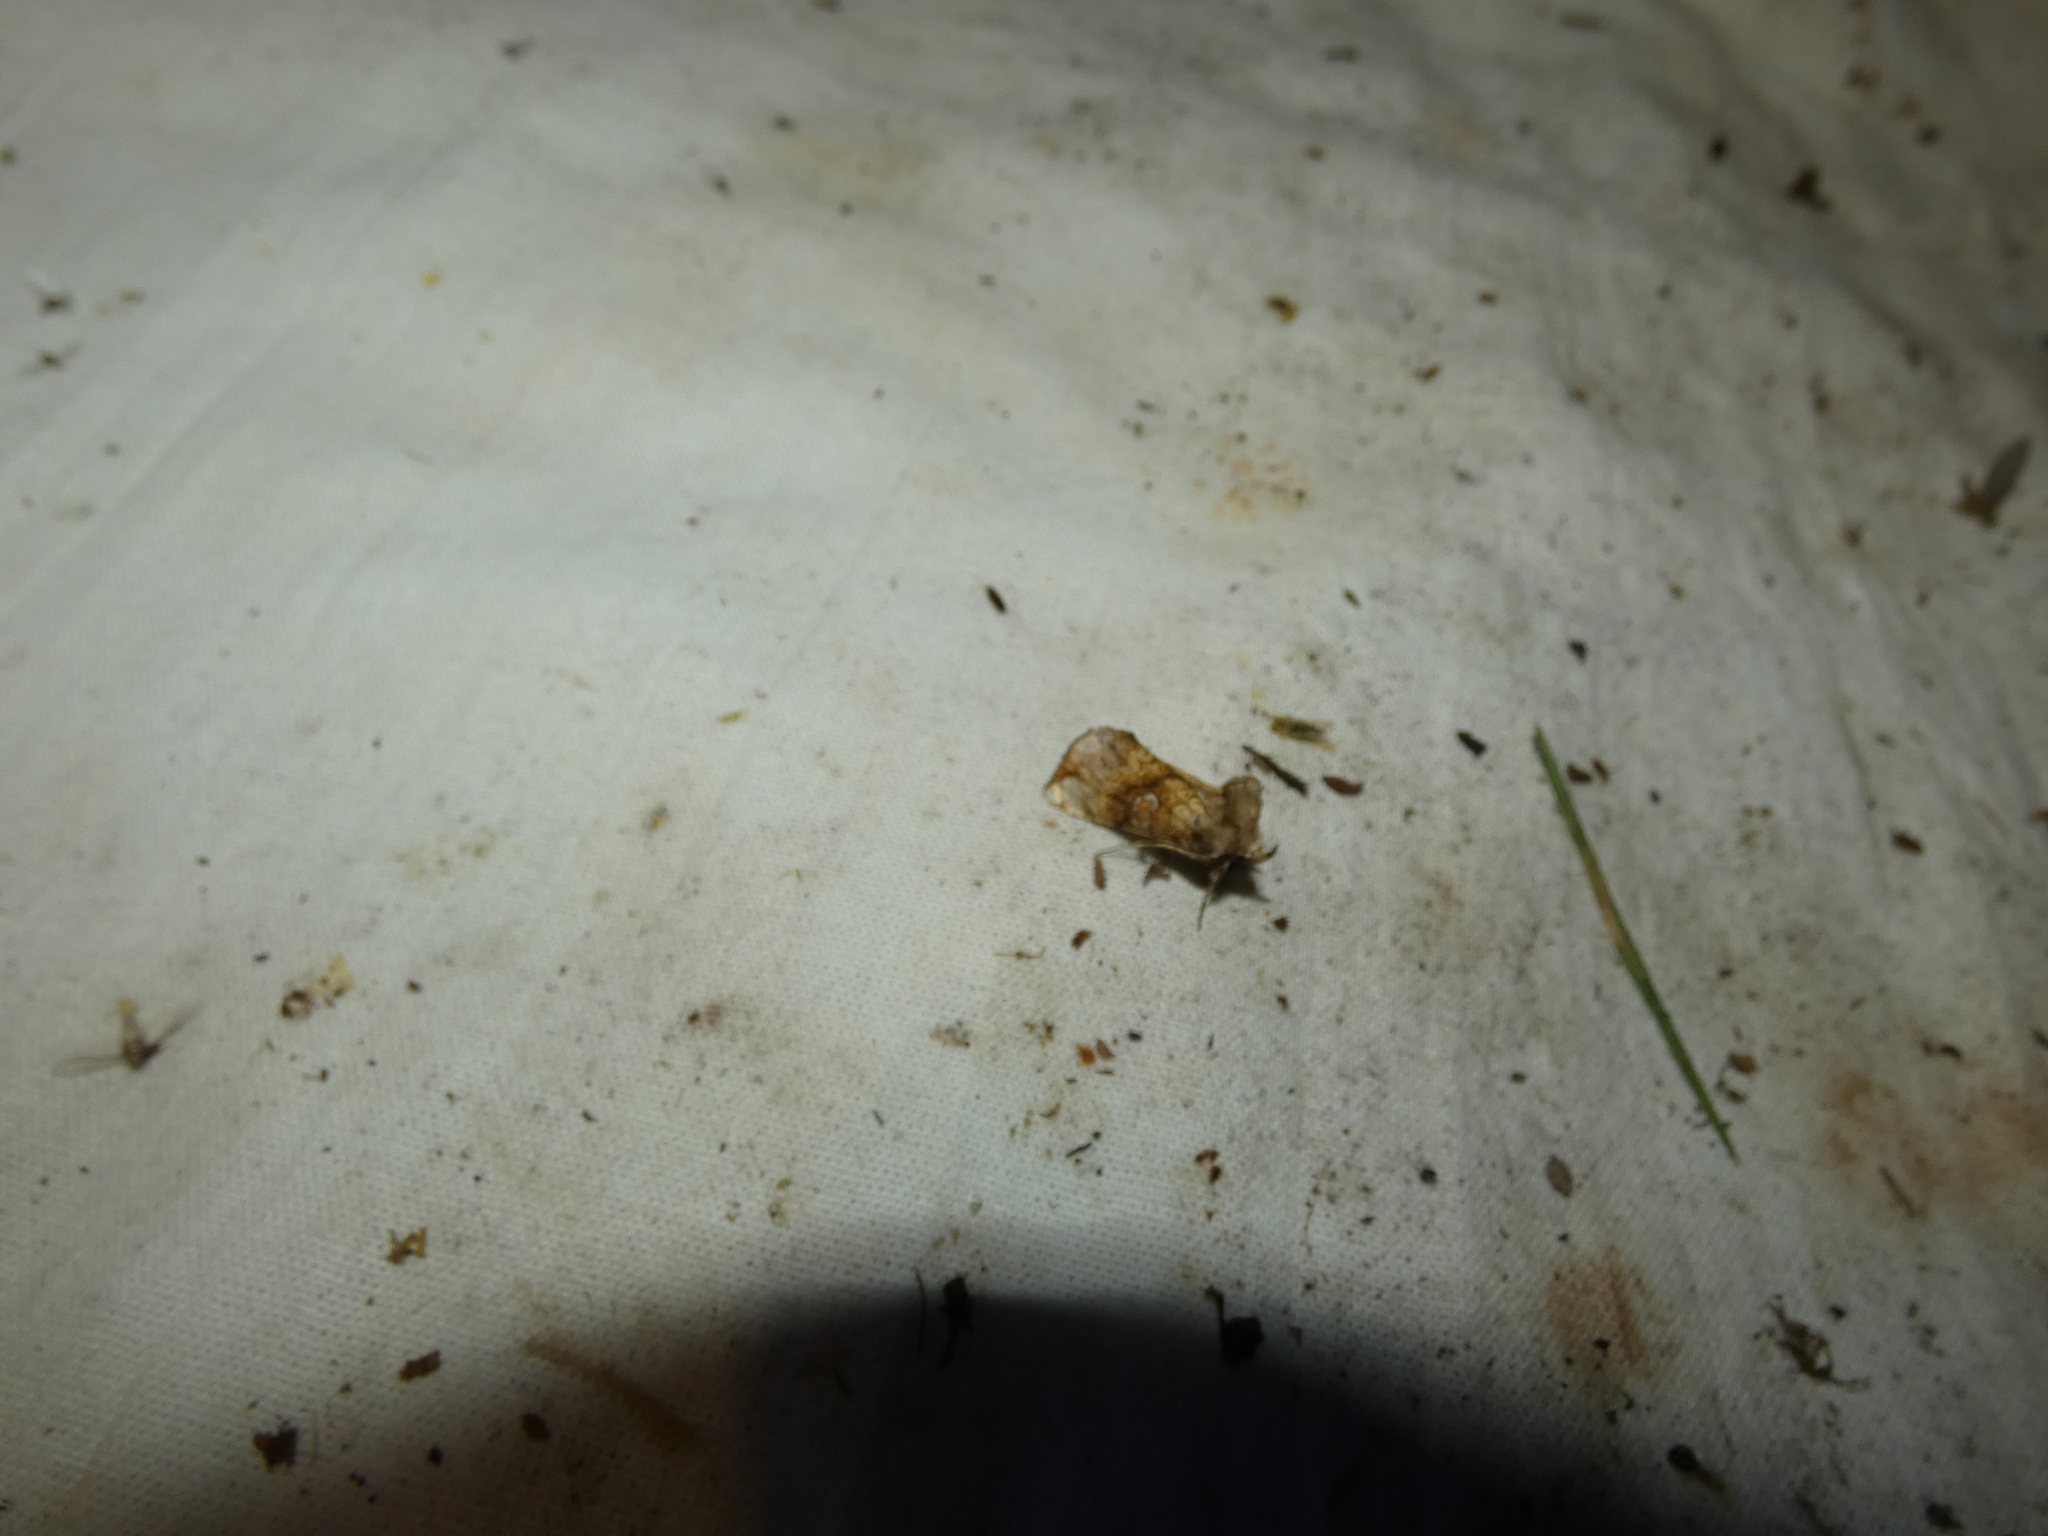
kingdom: Animalia
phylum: Arthropoda
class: Insecta
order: Lepidoptera
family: Noctuidae
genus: Polychrysia
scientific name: Polychrysia moneta
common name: Golden plusia
